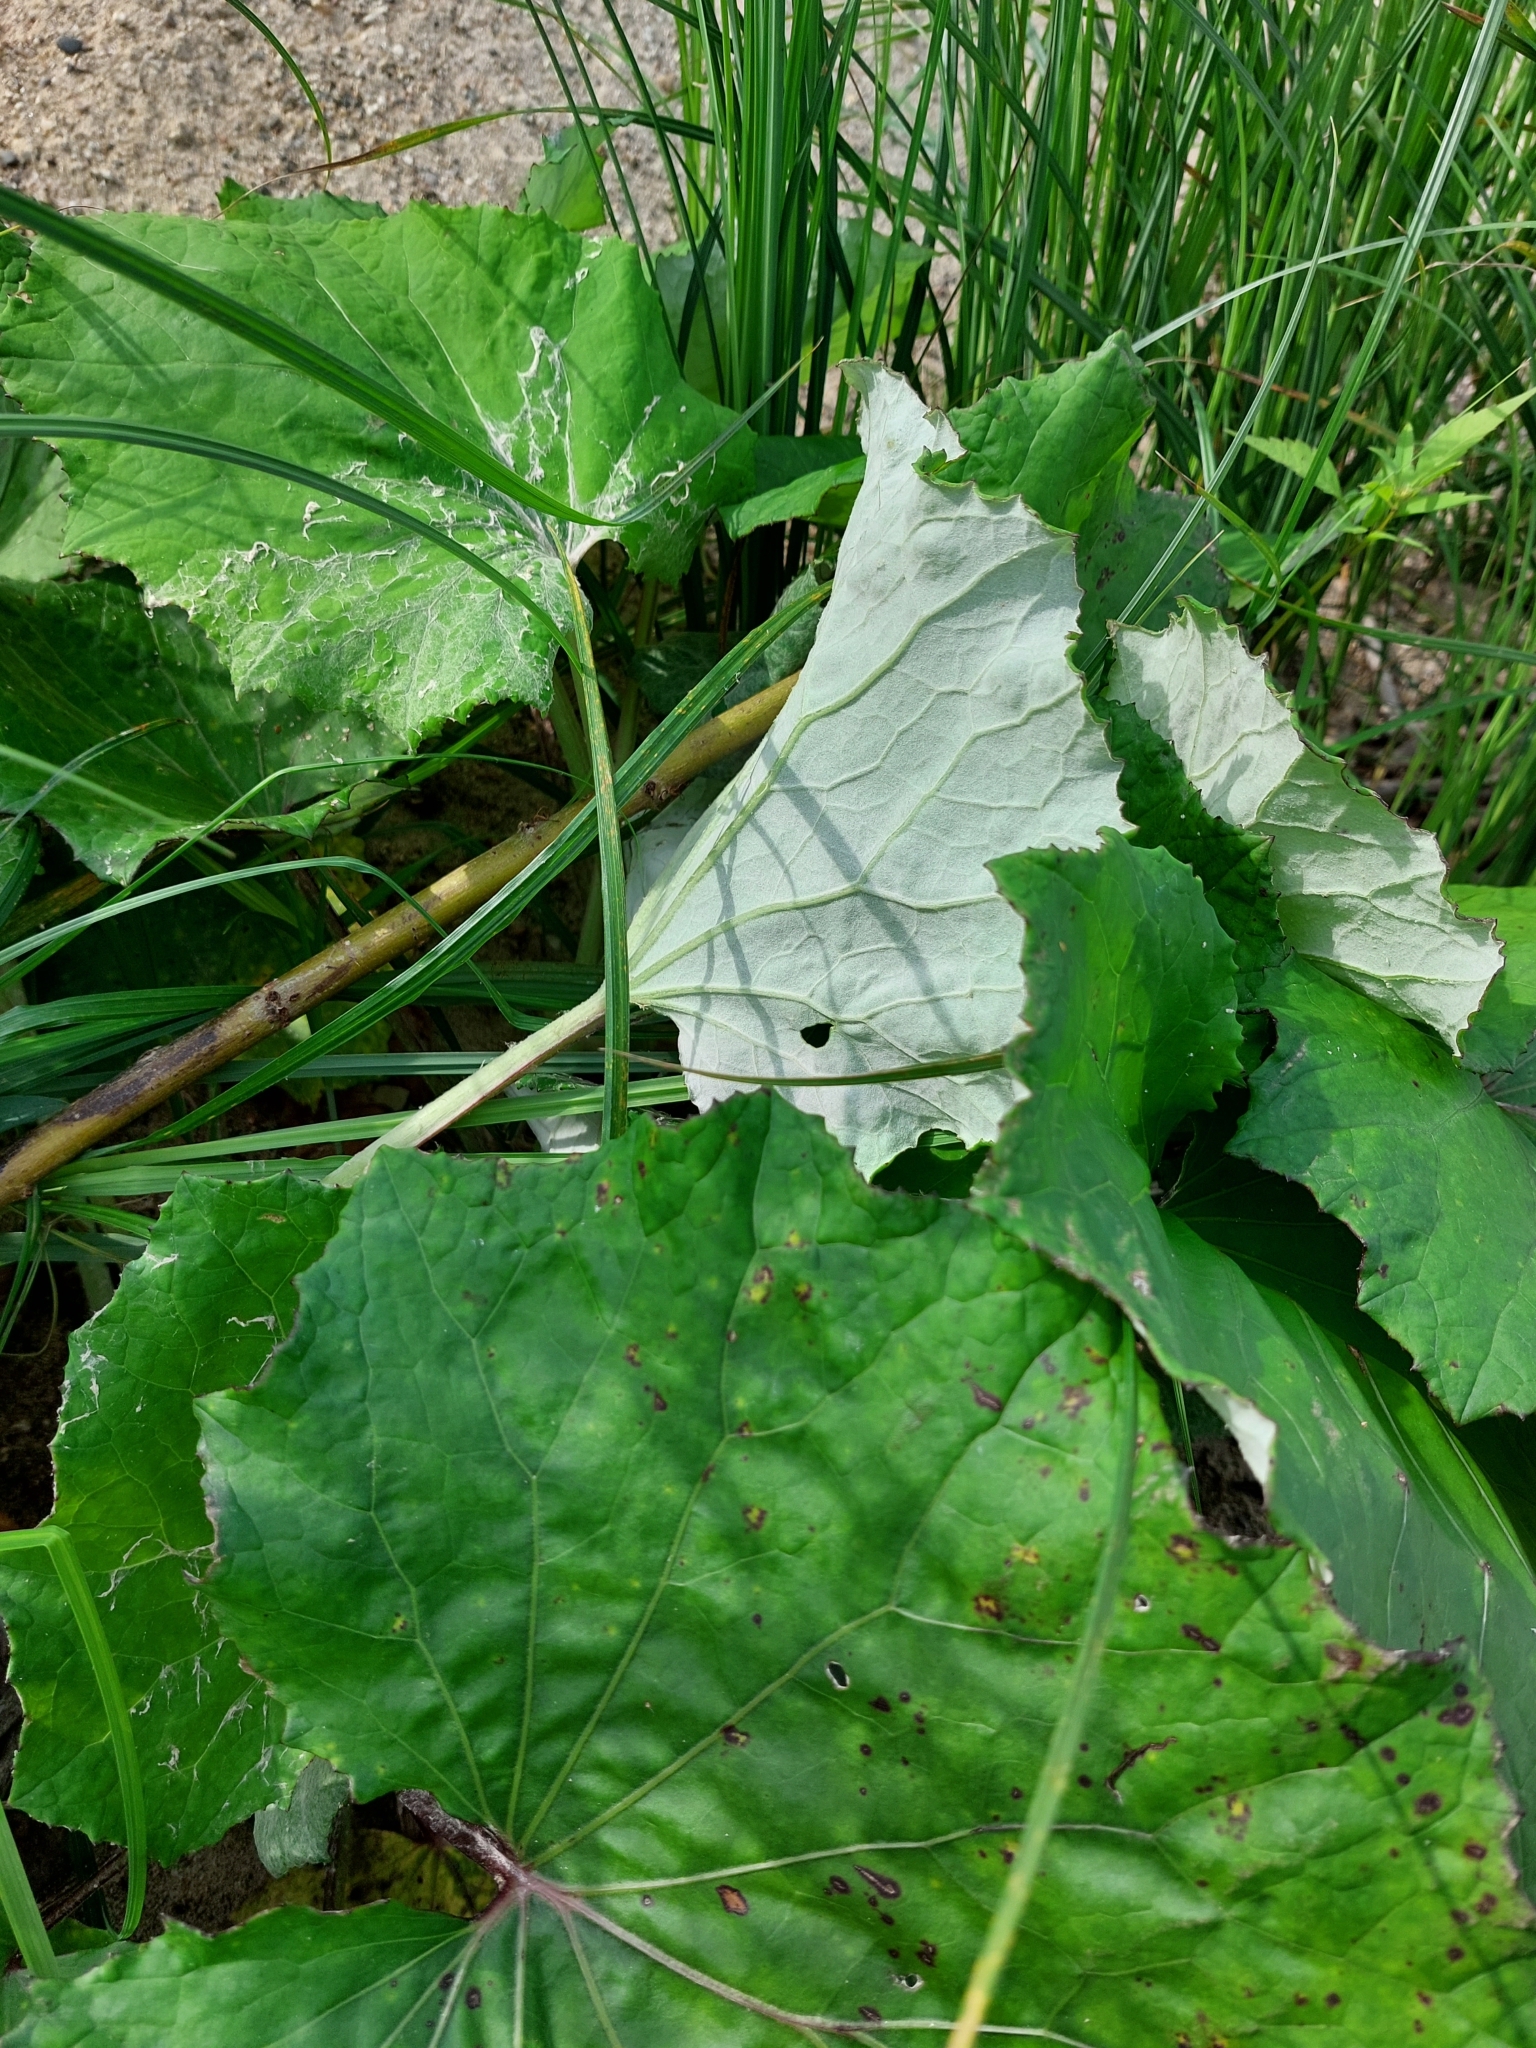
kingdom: Plantae
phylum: Tracheophyta
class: Magnoliopsida
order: Asterales
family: Asteraceae
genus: Tussilago
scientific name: Tussilago farfara
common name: Coltsfoot
